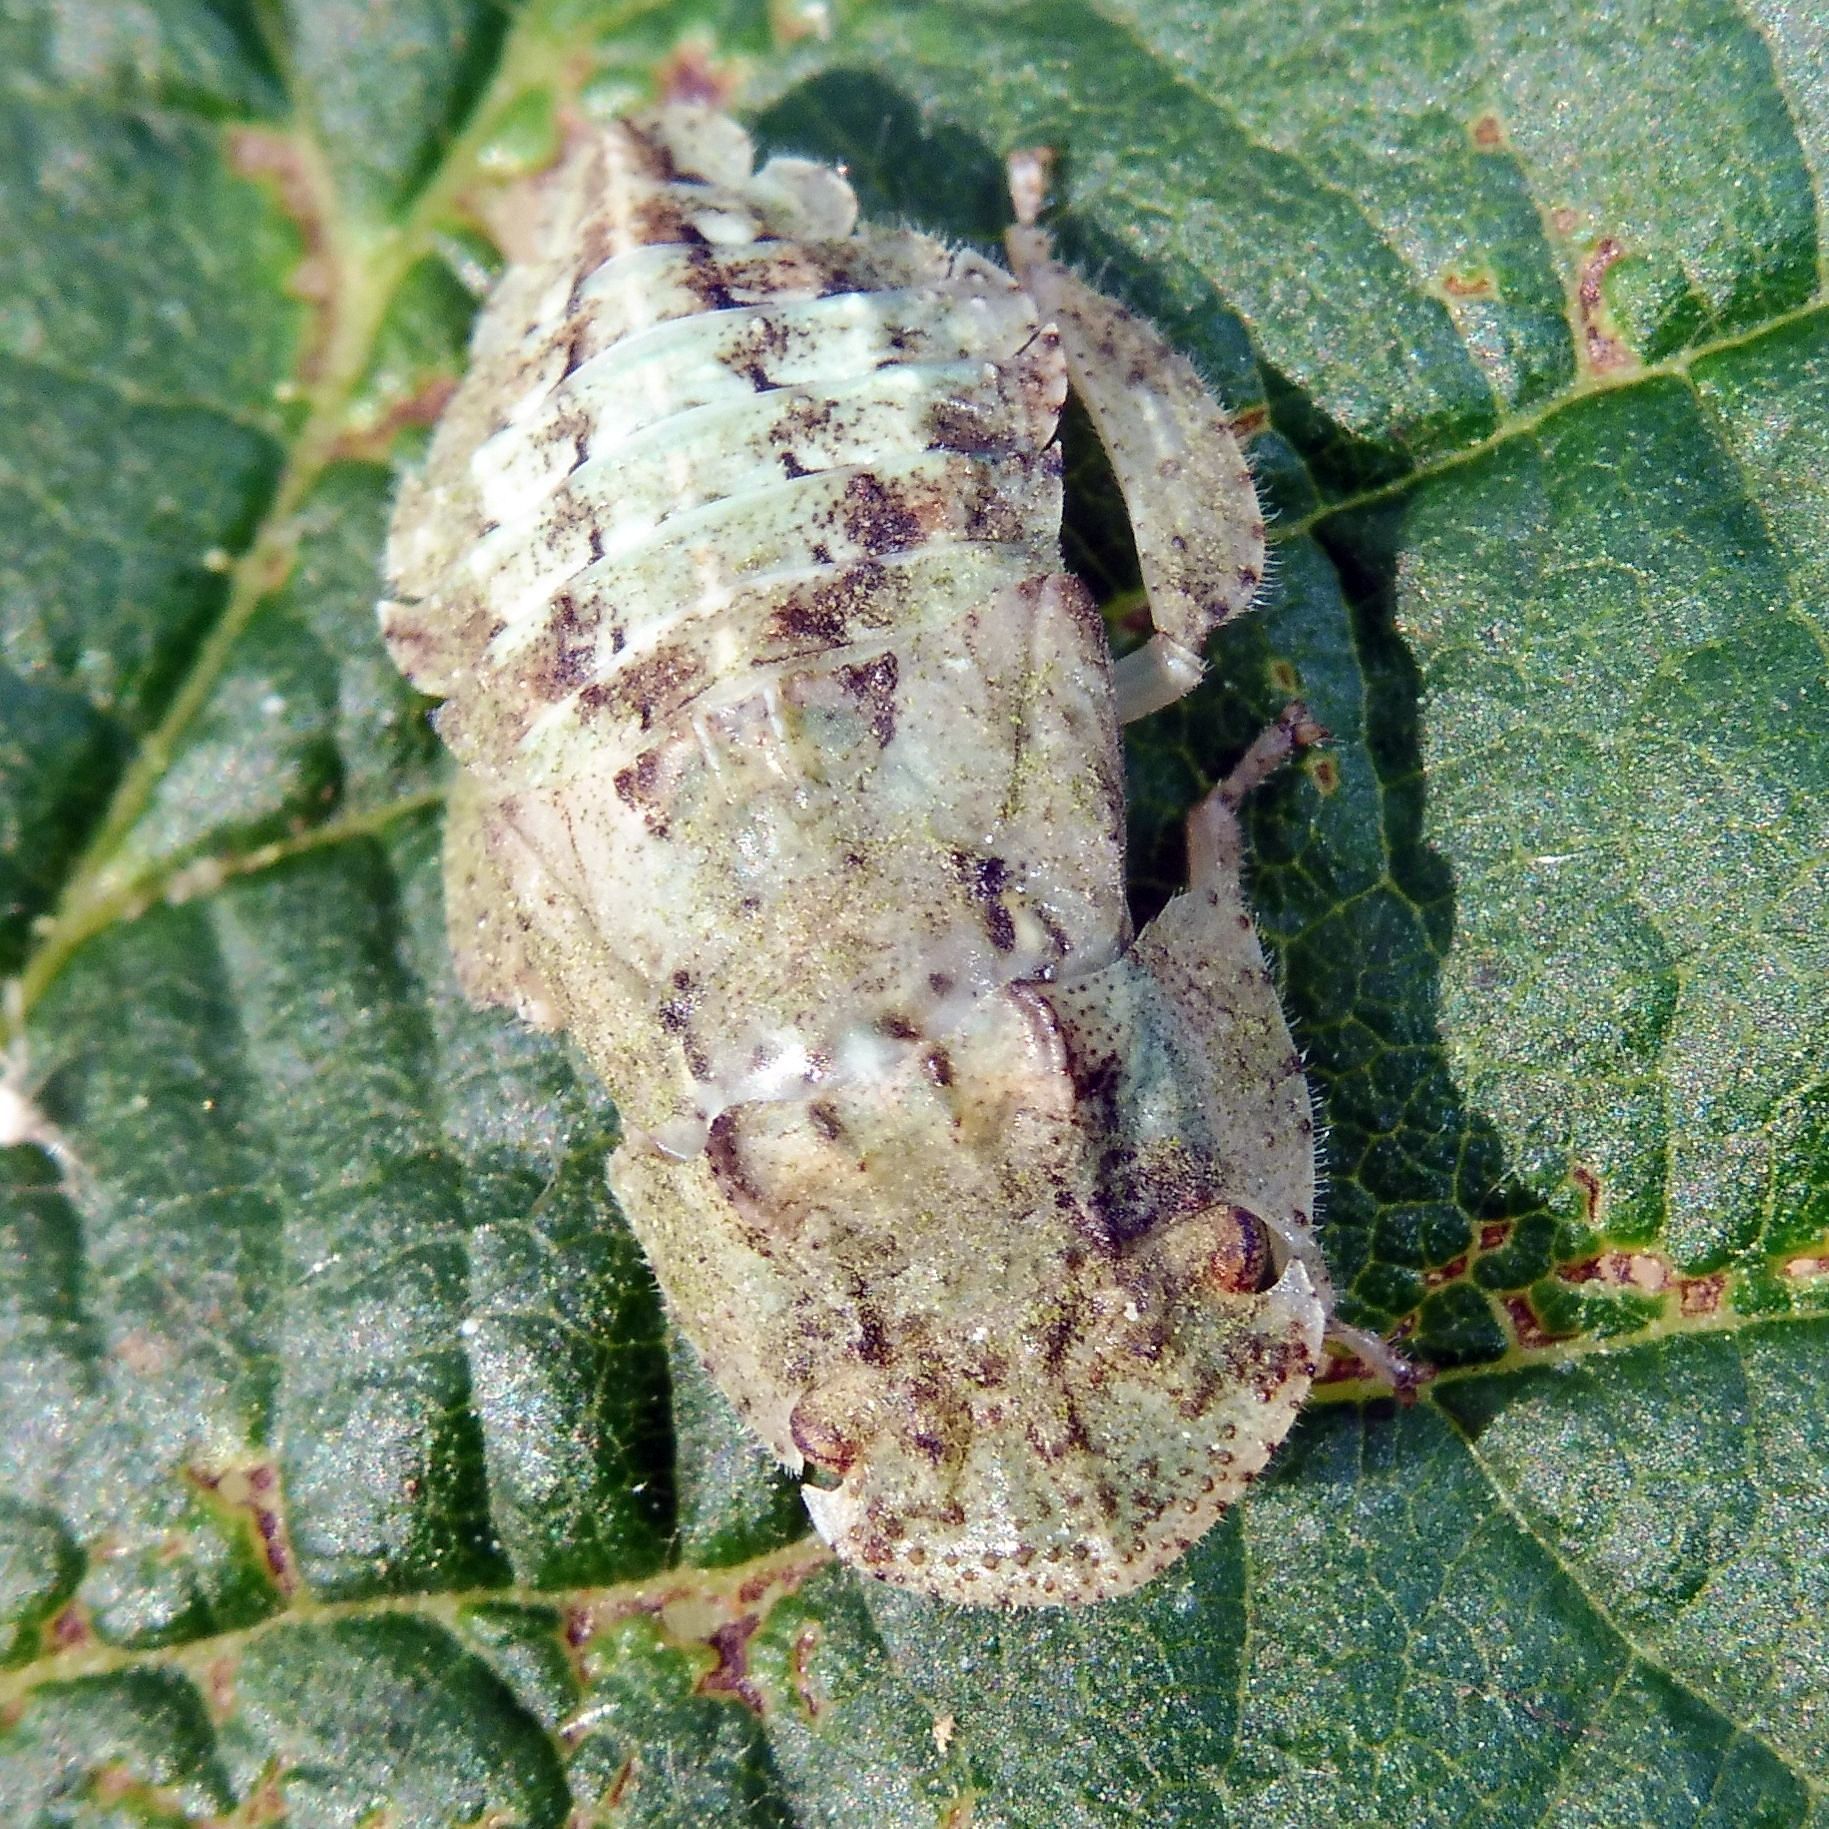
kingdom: Animalia
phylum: Arthropoda
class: Insecta
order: Hemiptera
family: Cicadellidae
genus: Ledra
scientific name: Ledra aurita
